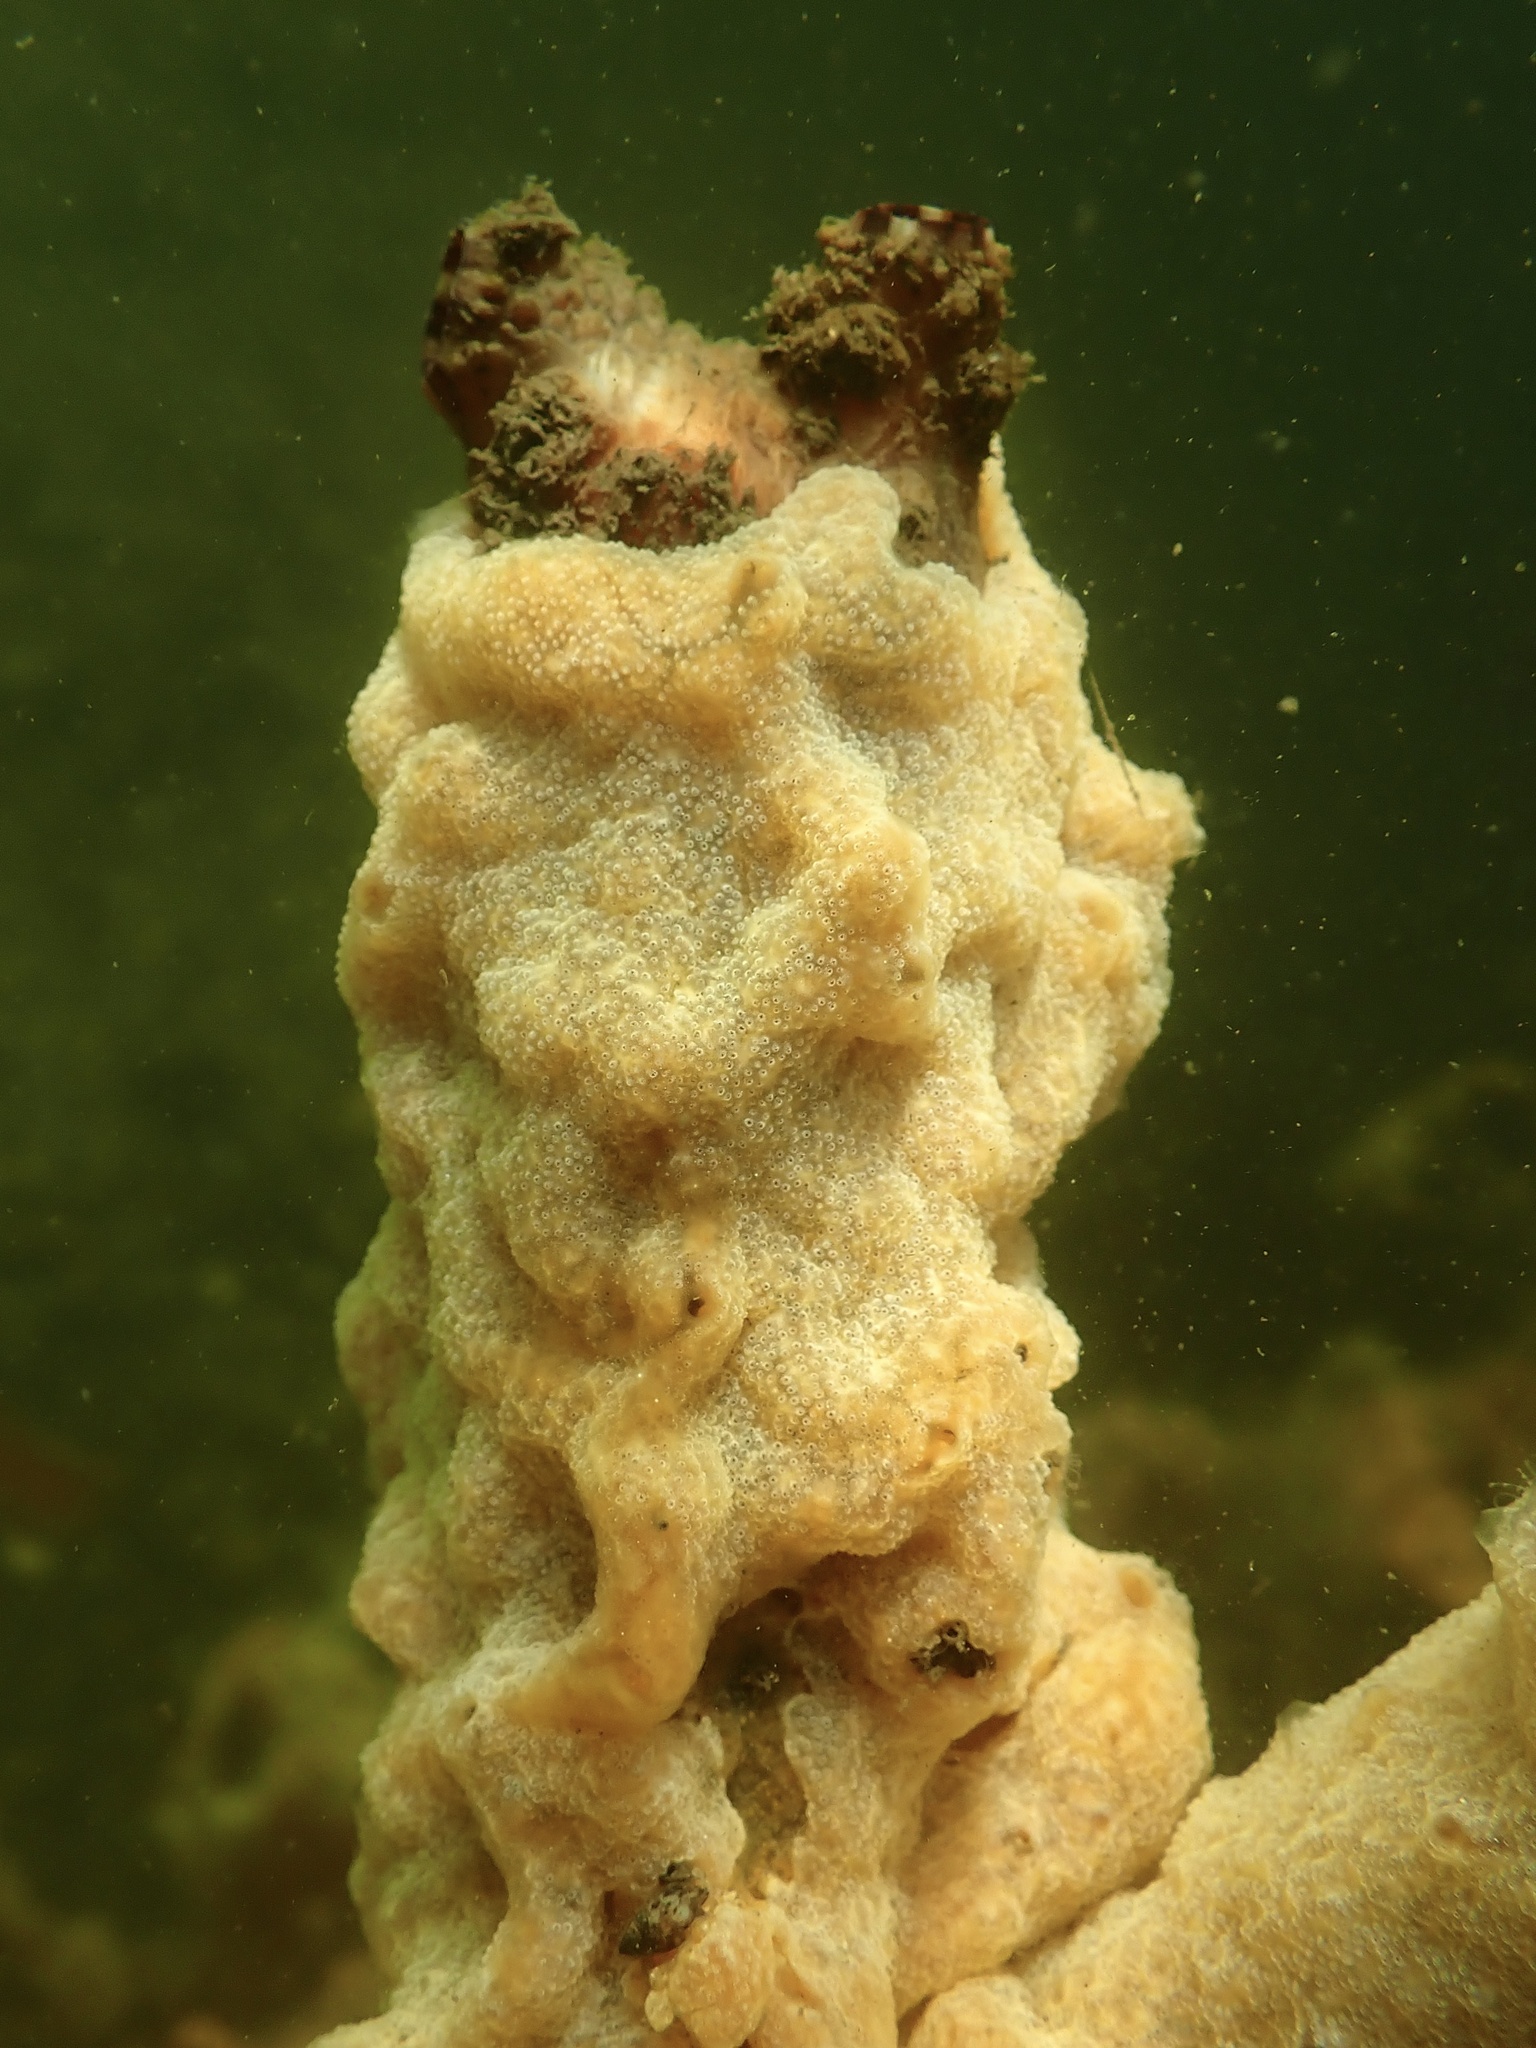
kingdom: Animalia
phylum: Chordata
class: Ascidiacea
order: Stolidobranchia
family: Styelidae
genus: Styela
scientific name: Styela clava
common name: Leathery sea squirt
